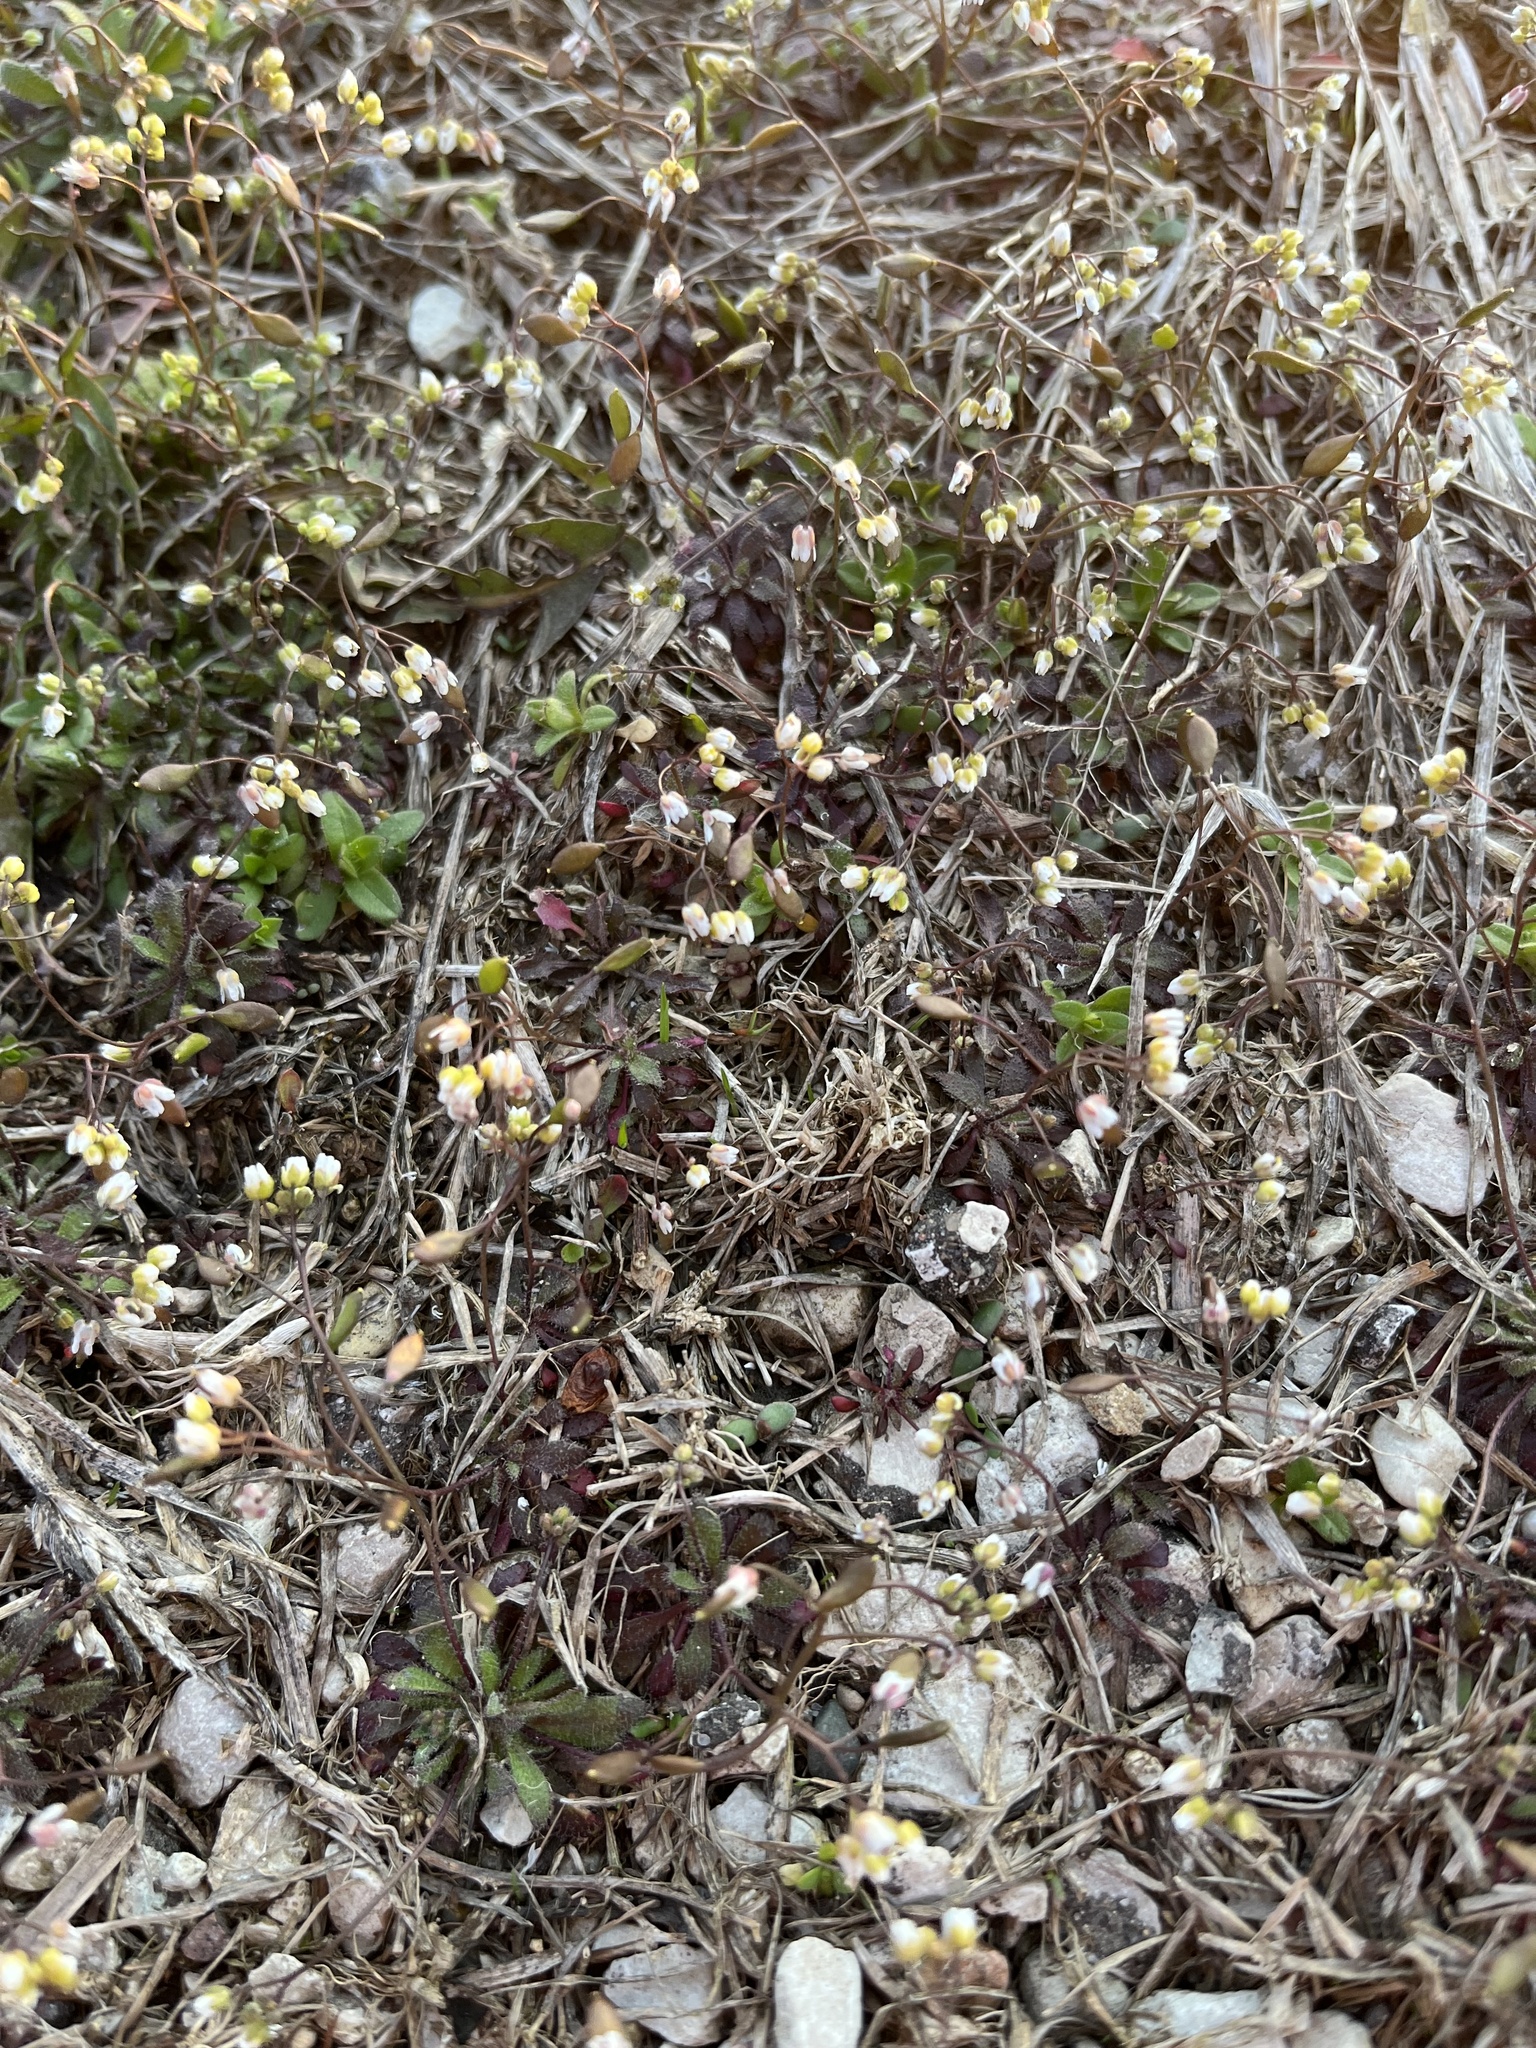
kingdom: Plantae
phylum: Tracheophyta
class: Magnoliopsida
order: Brassicales
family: Brassicaceae
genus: Draba
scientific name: Draba verna
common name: Spring draba
